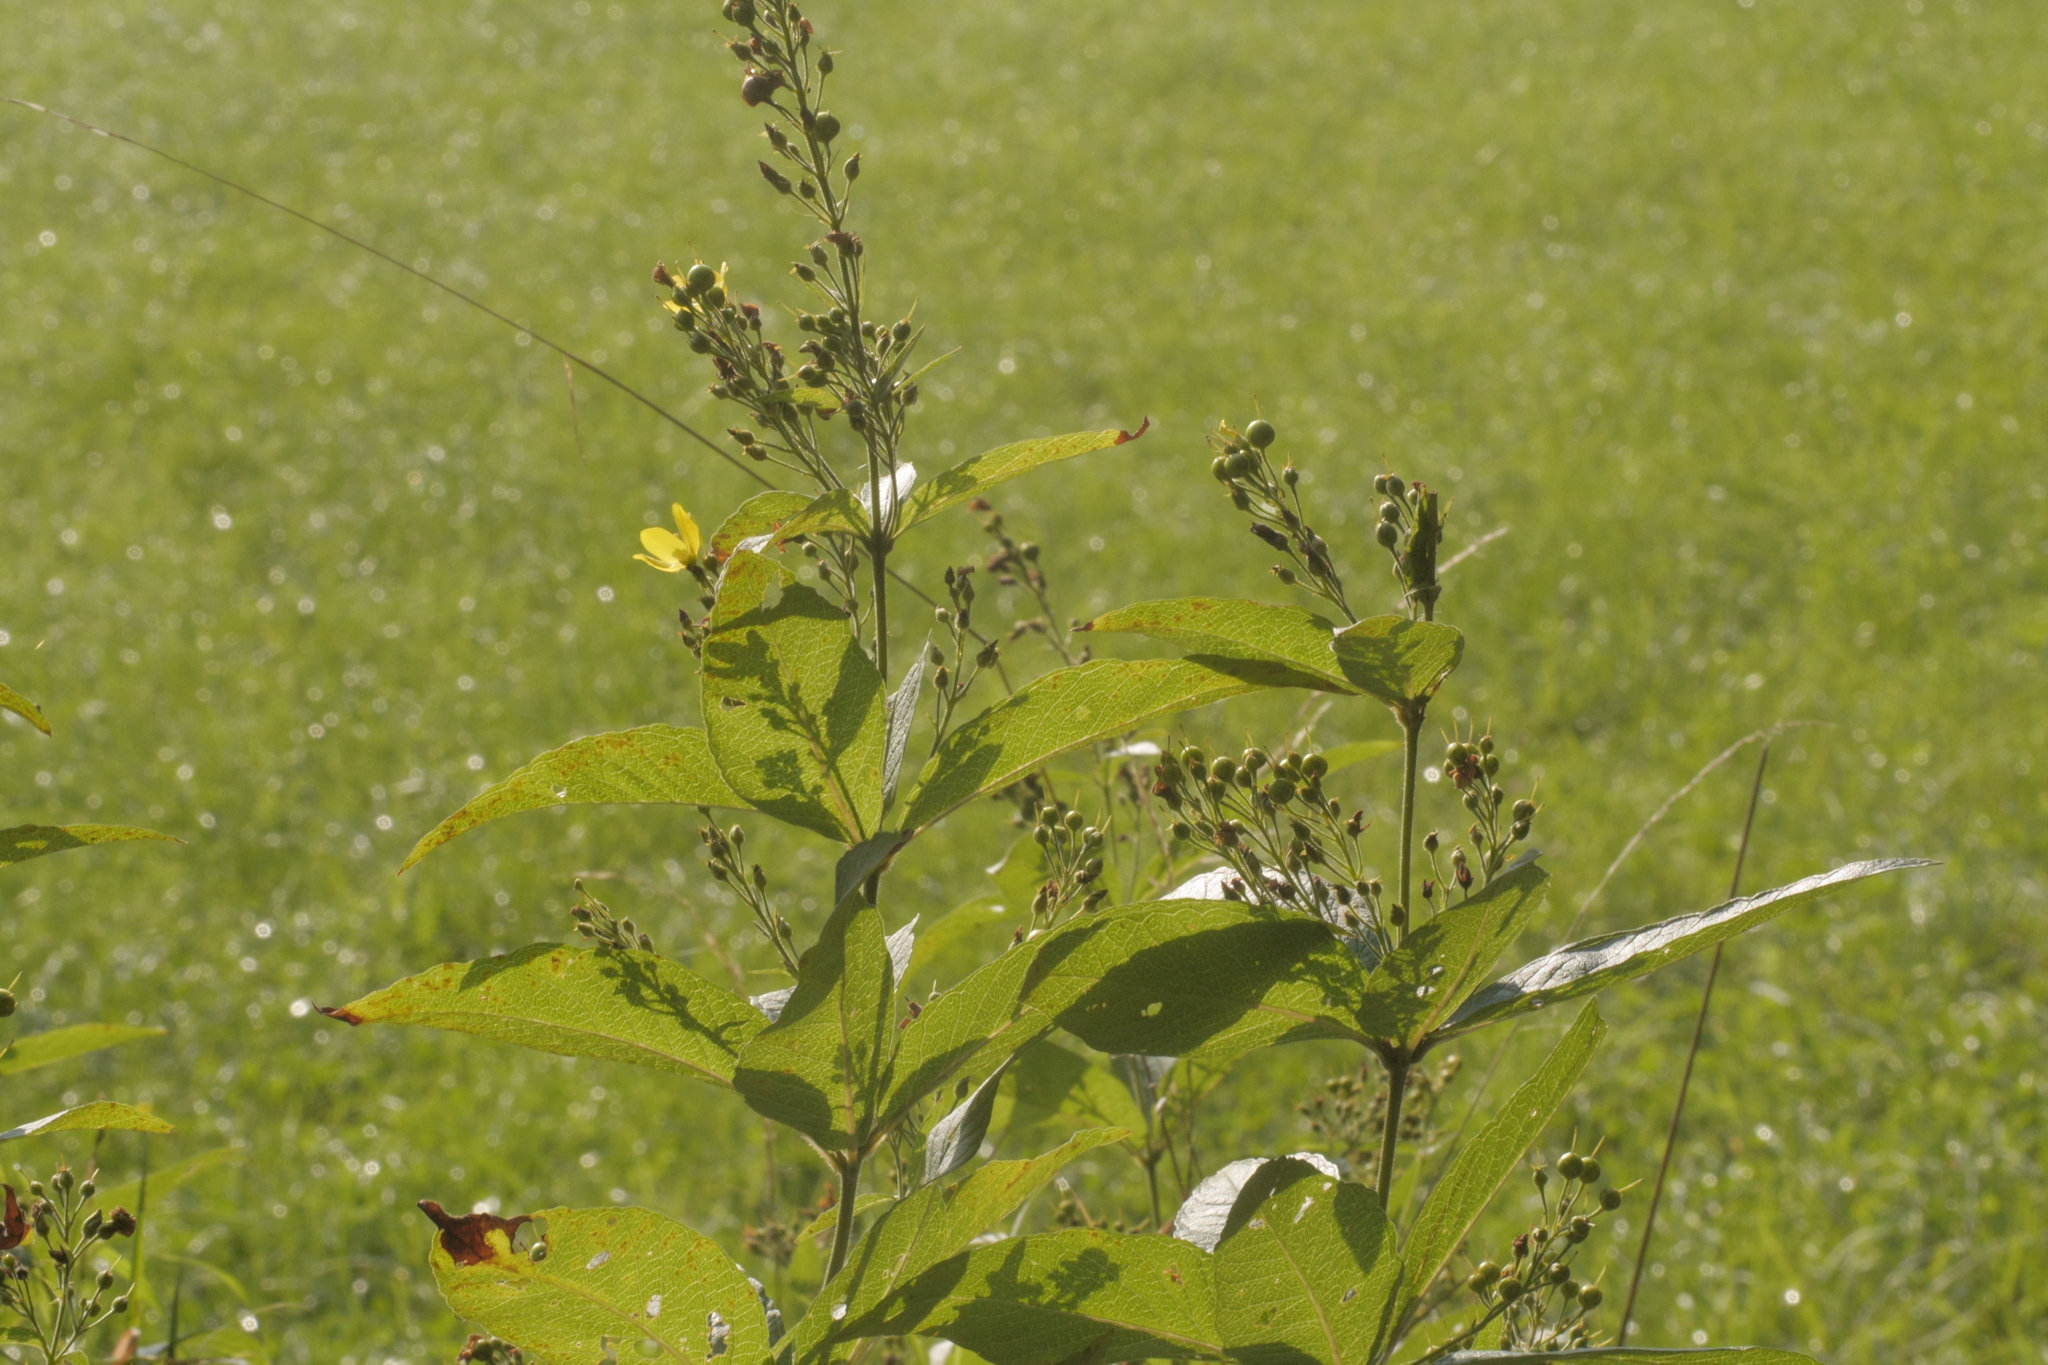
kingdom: Plantae
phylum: Tracheophyta
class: Magnoliopsida
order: Ericales
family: Primulaceae
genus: Lysimachia
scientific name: Lysimachia vulgaris
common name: Yellow loosestrife
